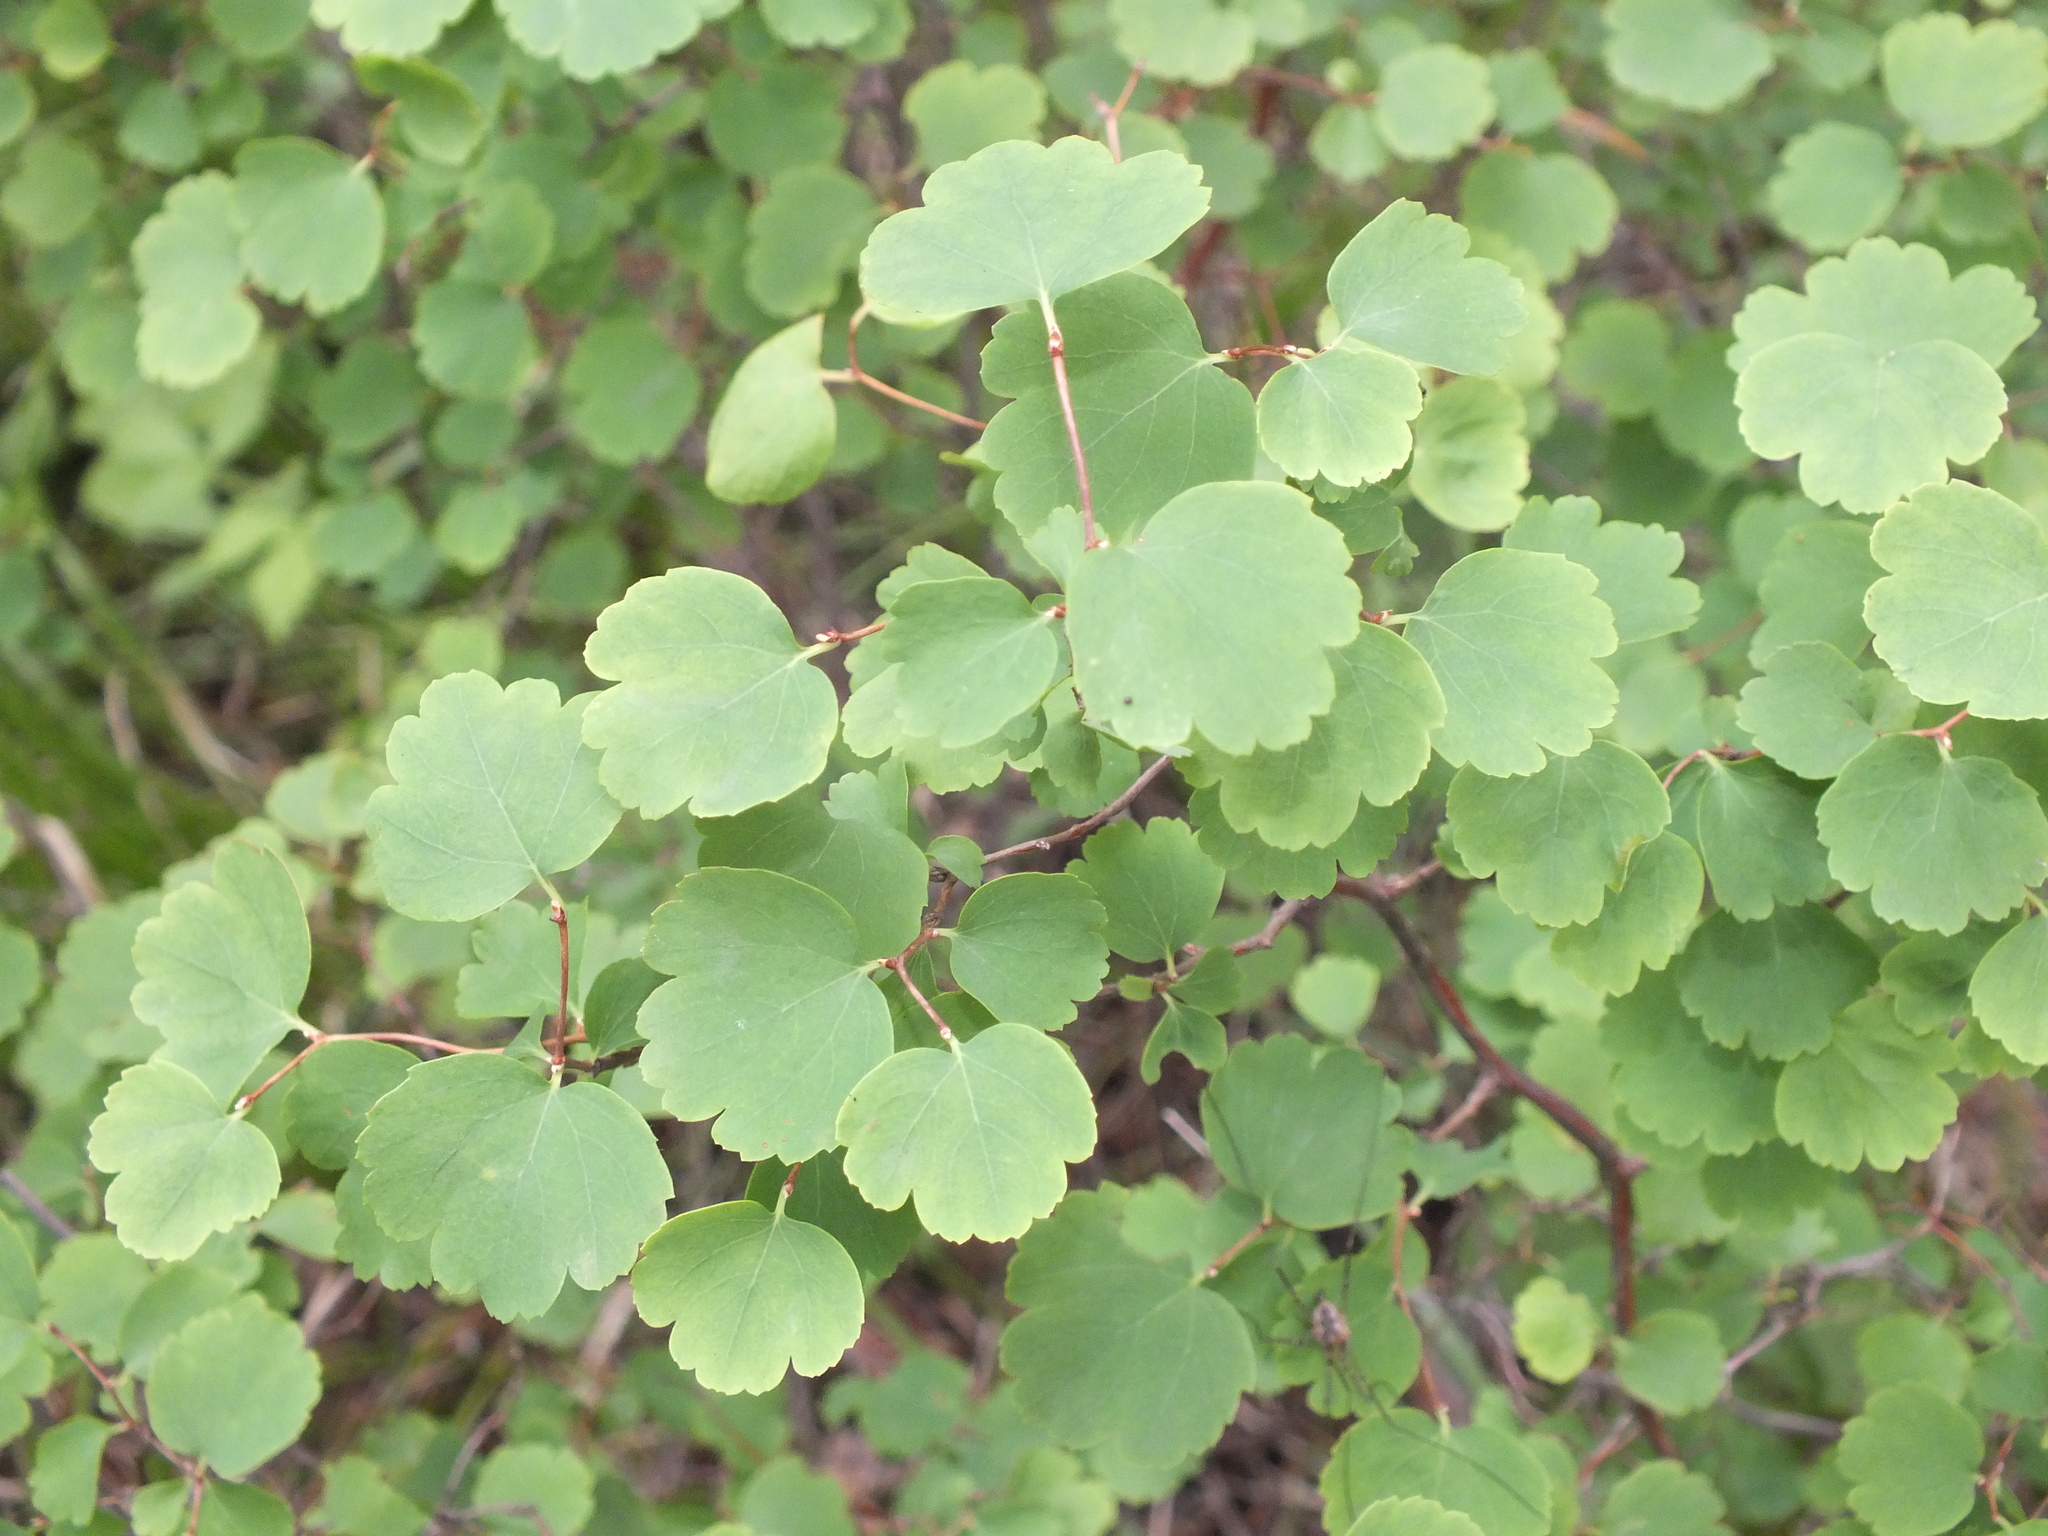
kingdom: Plantae
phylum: Tracheophyta
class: Magnoliopsida
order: Malpighiales
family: Salicaceae
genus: Populus
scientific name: Populus tremula
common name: European aspen
